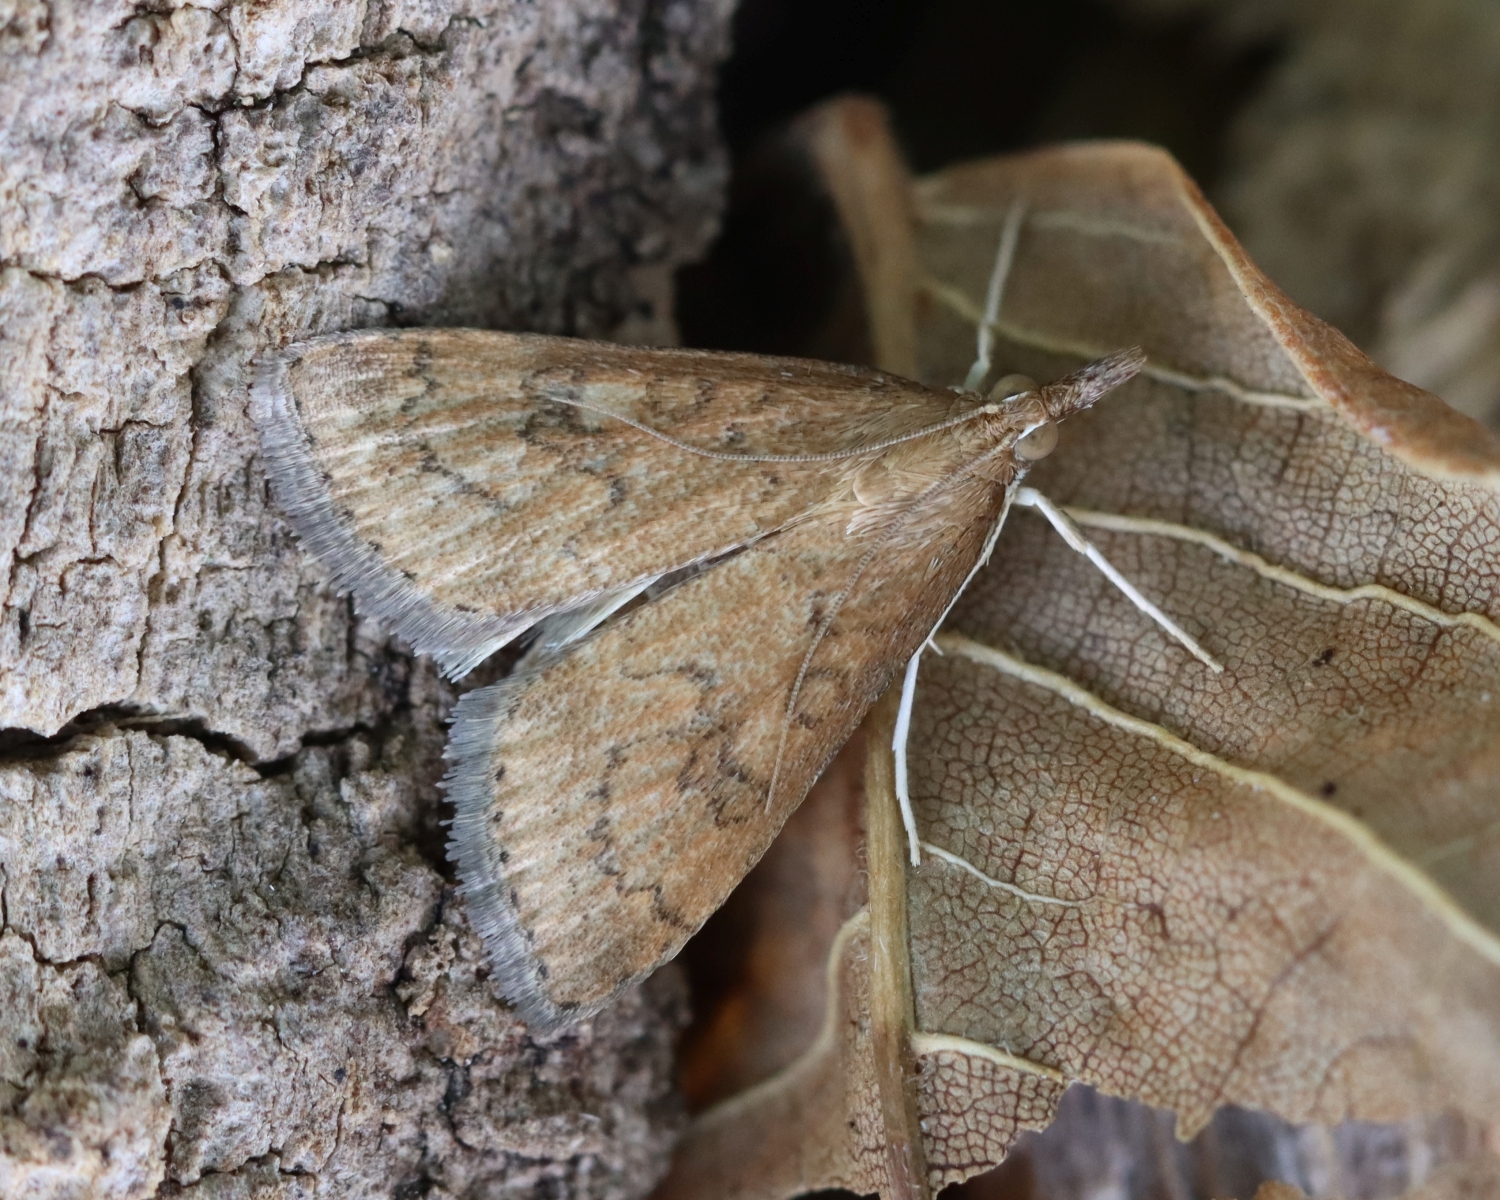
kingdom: Animalia
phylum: Arthropoda
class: Insecta
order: Lepidoptera
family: Crambidae
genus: Udea
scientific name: Udea rubigalis
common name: Celery leaftier moth
